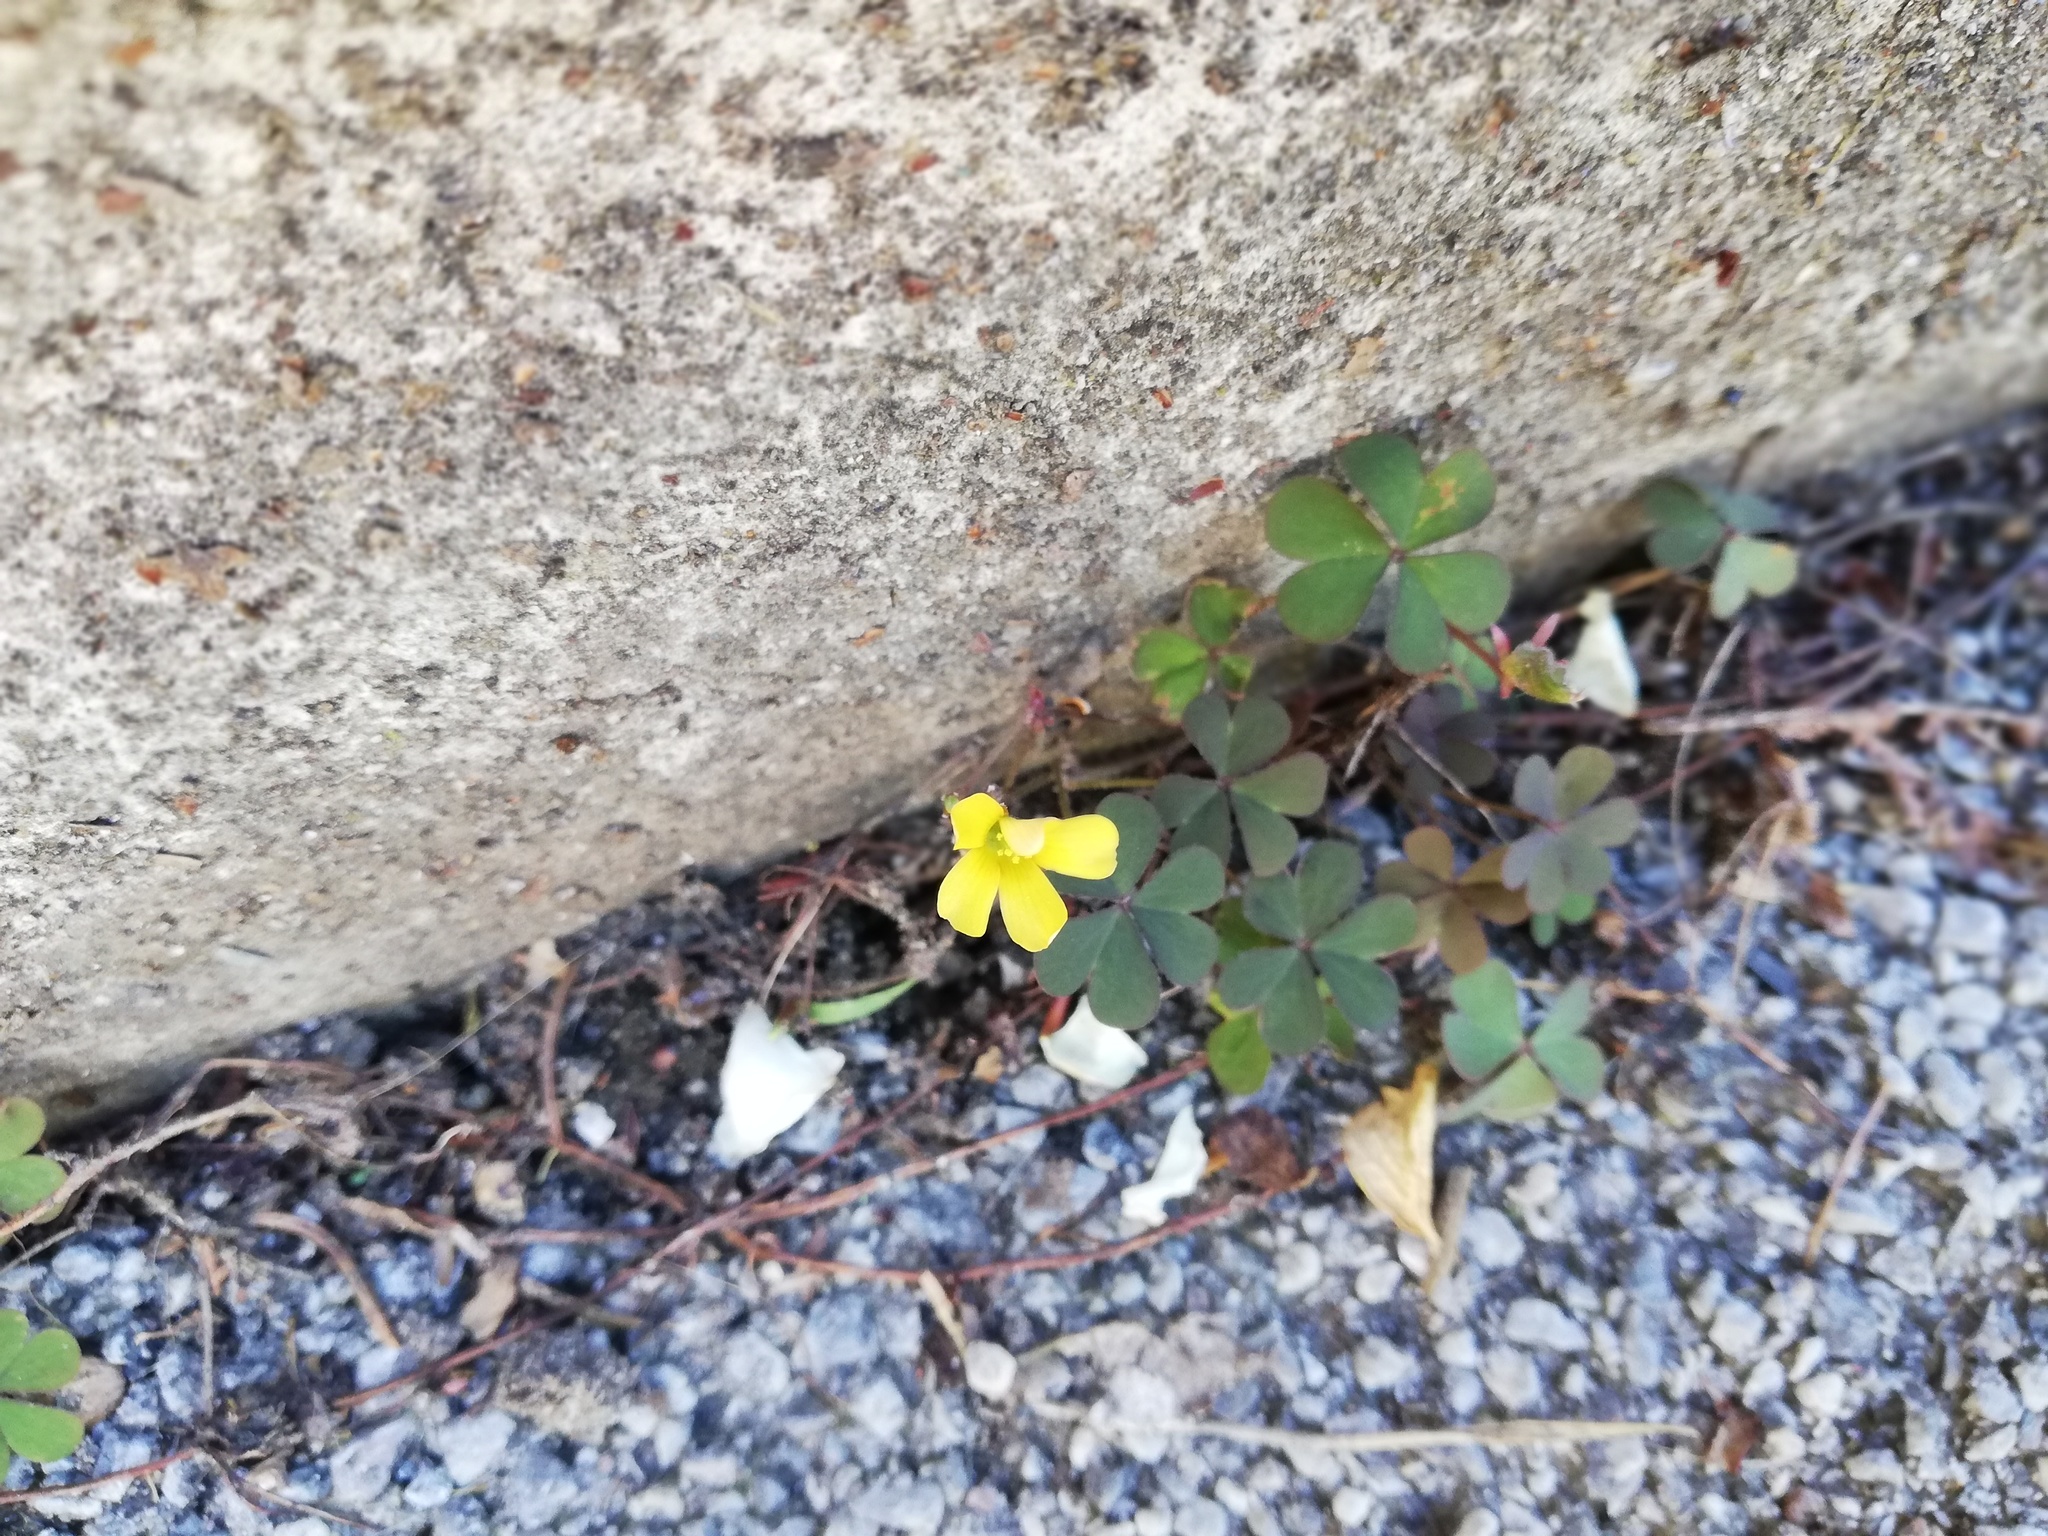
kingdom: Plantae
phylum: Tracheophyta
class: Magnoliopsida
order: Oxalidales
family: Oxalidaceae
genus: Oxalis
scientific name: Oxalis corniculata
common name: Procumbent yellow-sorrel
